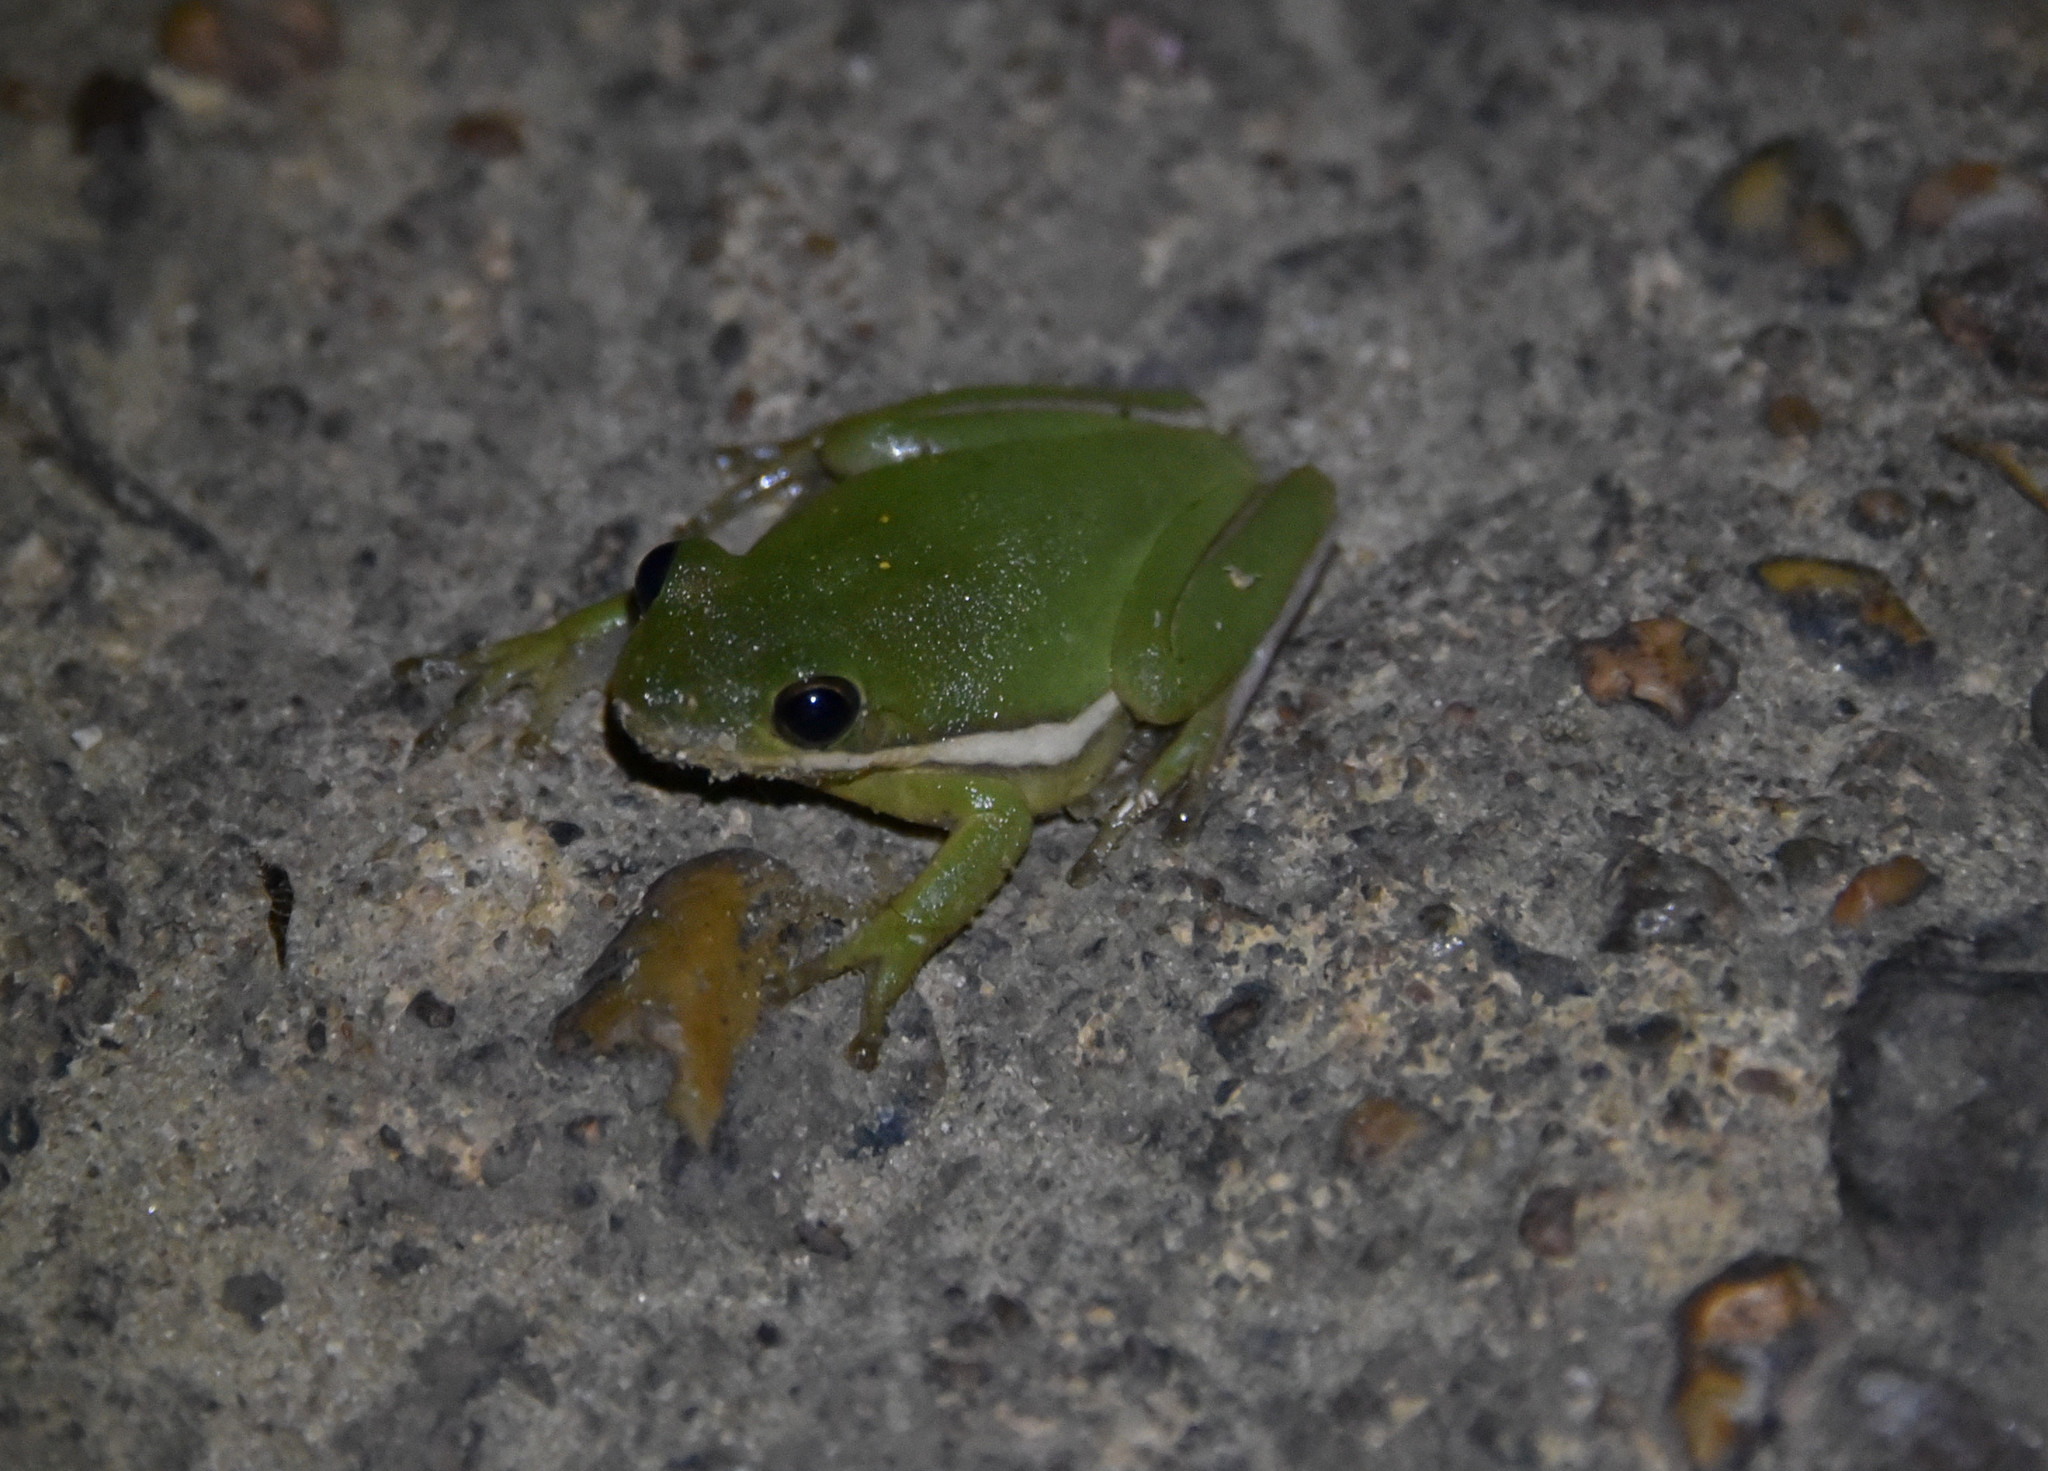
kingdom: Animalia
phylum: Chordata
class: Amphibia
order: Anura
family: Hylidae
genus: Dryophytes
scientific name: Dryophytes cinereus
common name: Green treefrog
